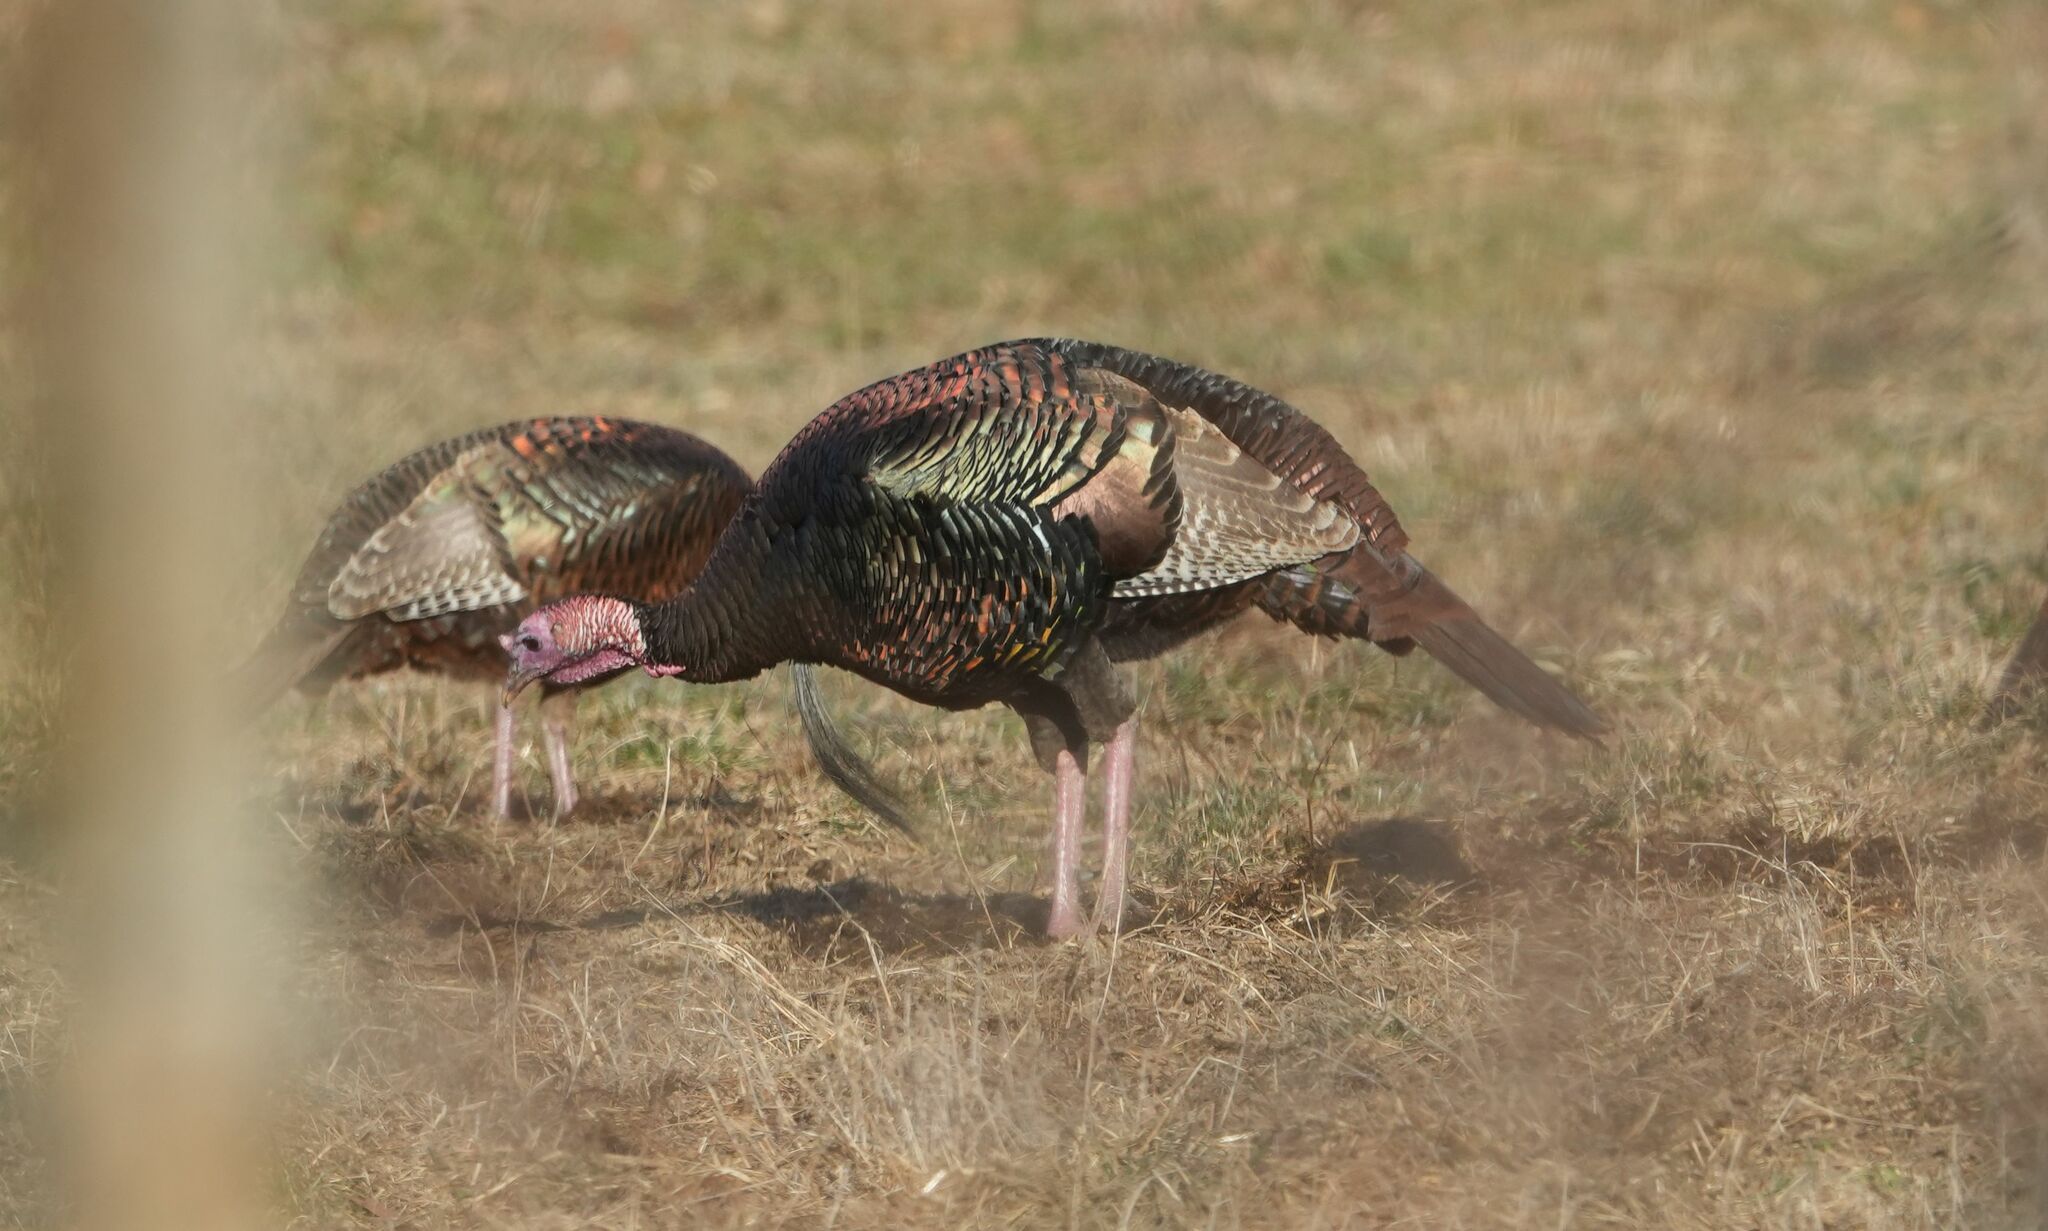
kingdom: Animalia
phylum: Chordata
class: Aves
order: Galliformes
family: Phasianidae
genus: Meleagris
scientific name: Meleagris gallopavo
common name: Wild turkey
